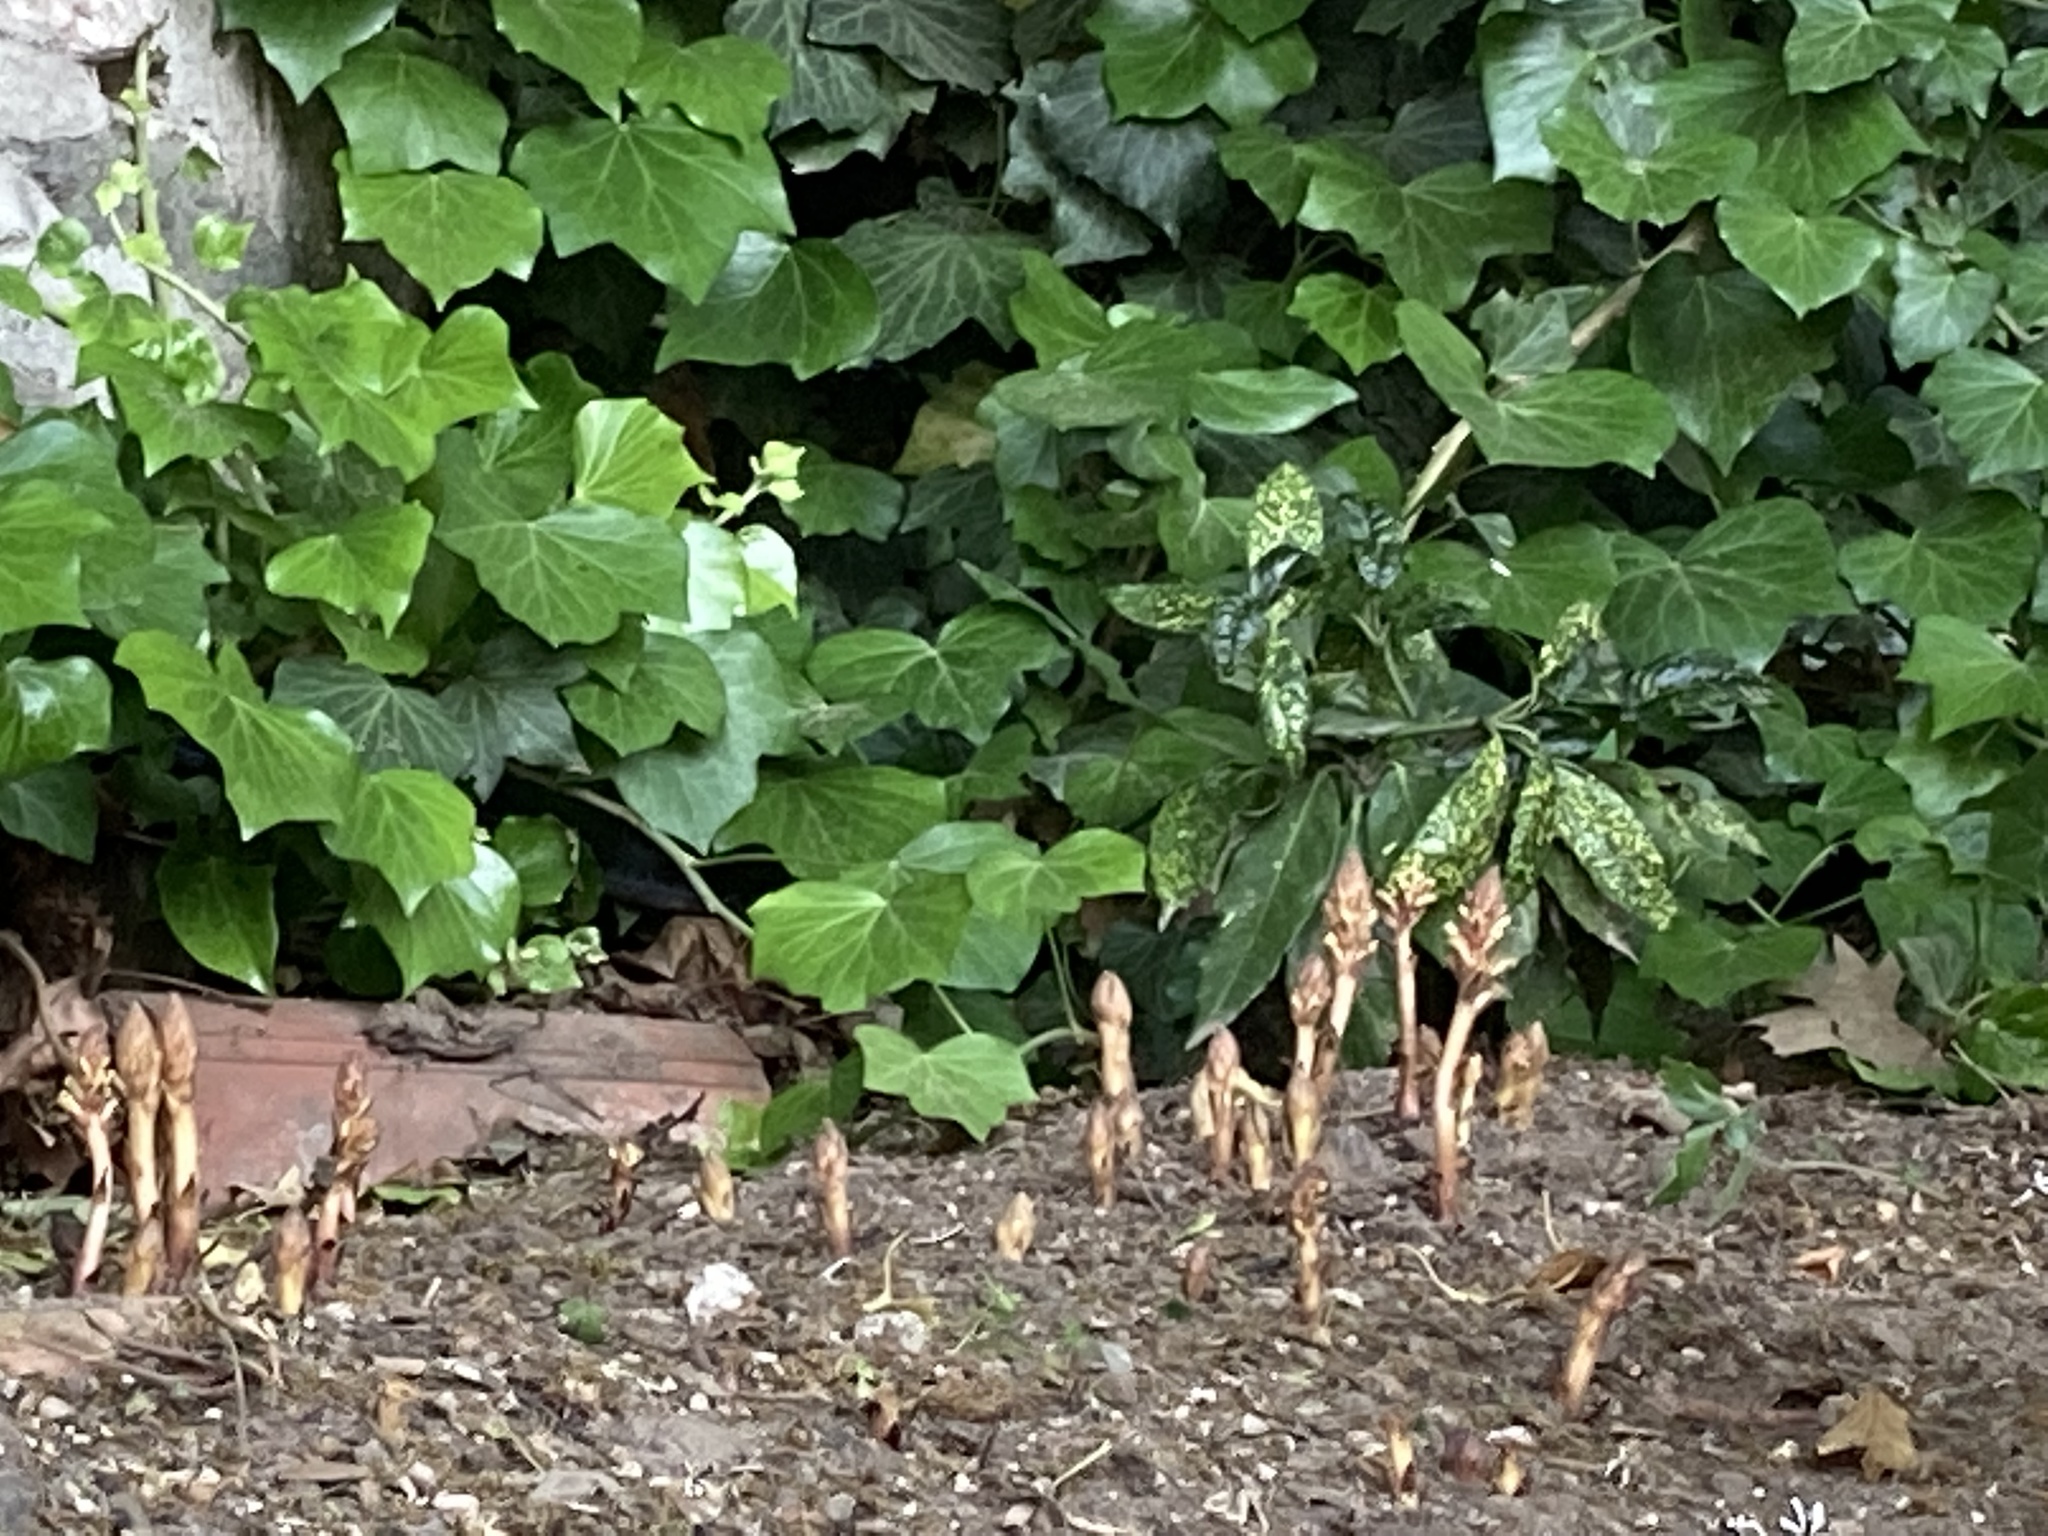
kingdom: Plantae
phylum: Tracheophyta
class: Magnoliopsida
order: Lamiales
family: Orobanchaceae
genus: Orobanche
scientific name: Orobanche hederae
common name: Ivy broomrape
